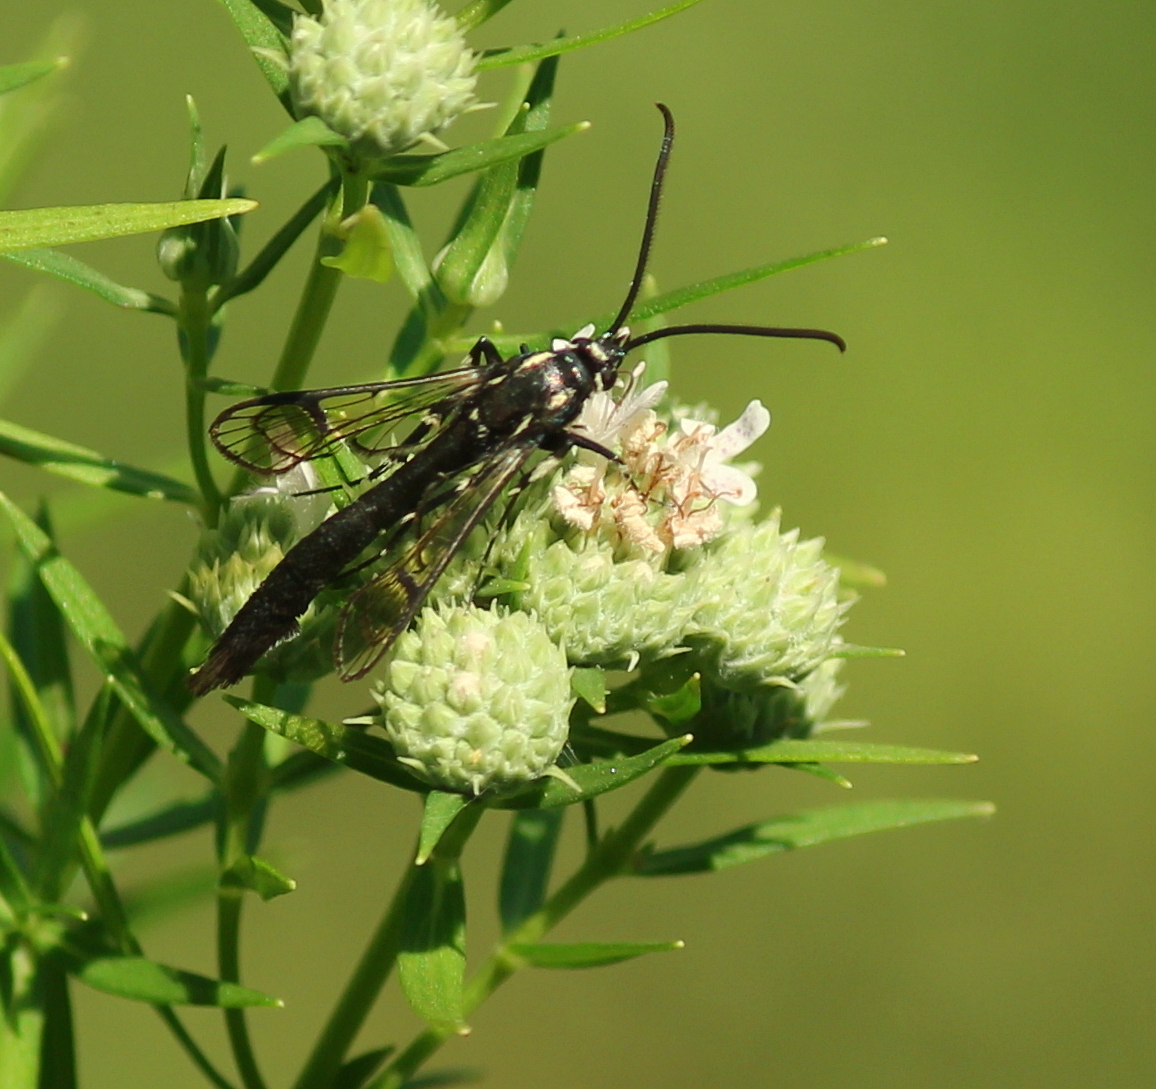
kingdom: Animalia
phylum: Arthropoda
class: Insecta
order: Lepidoptera
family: Sesiidae
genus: Synanthedon
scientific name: Synanthedon pictipes
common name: Lesser peachtree borer moth
